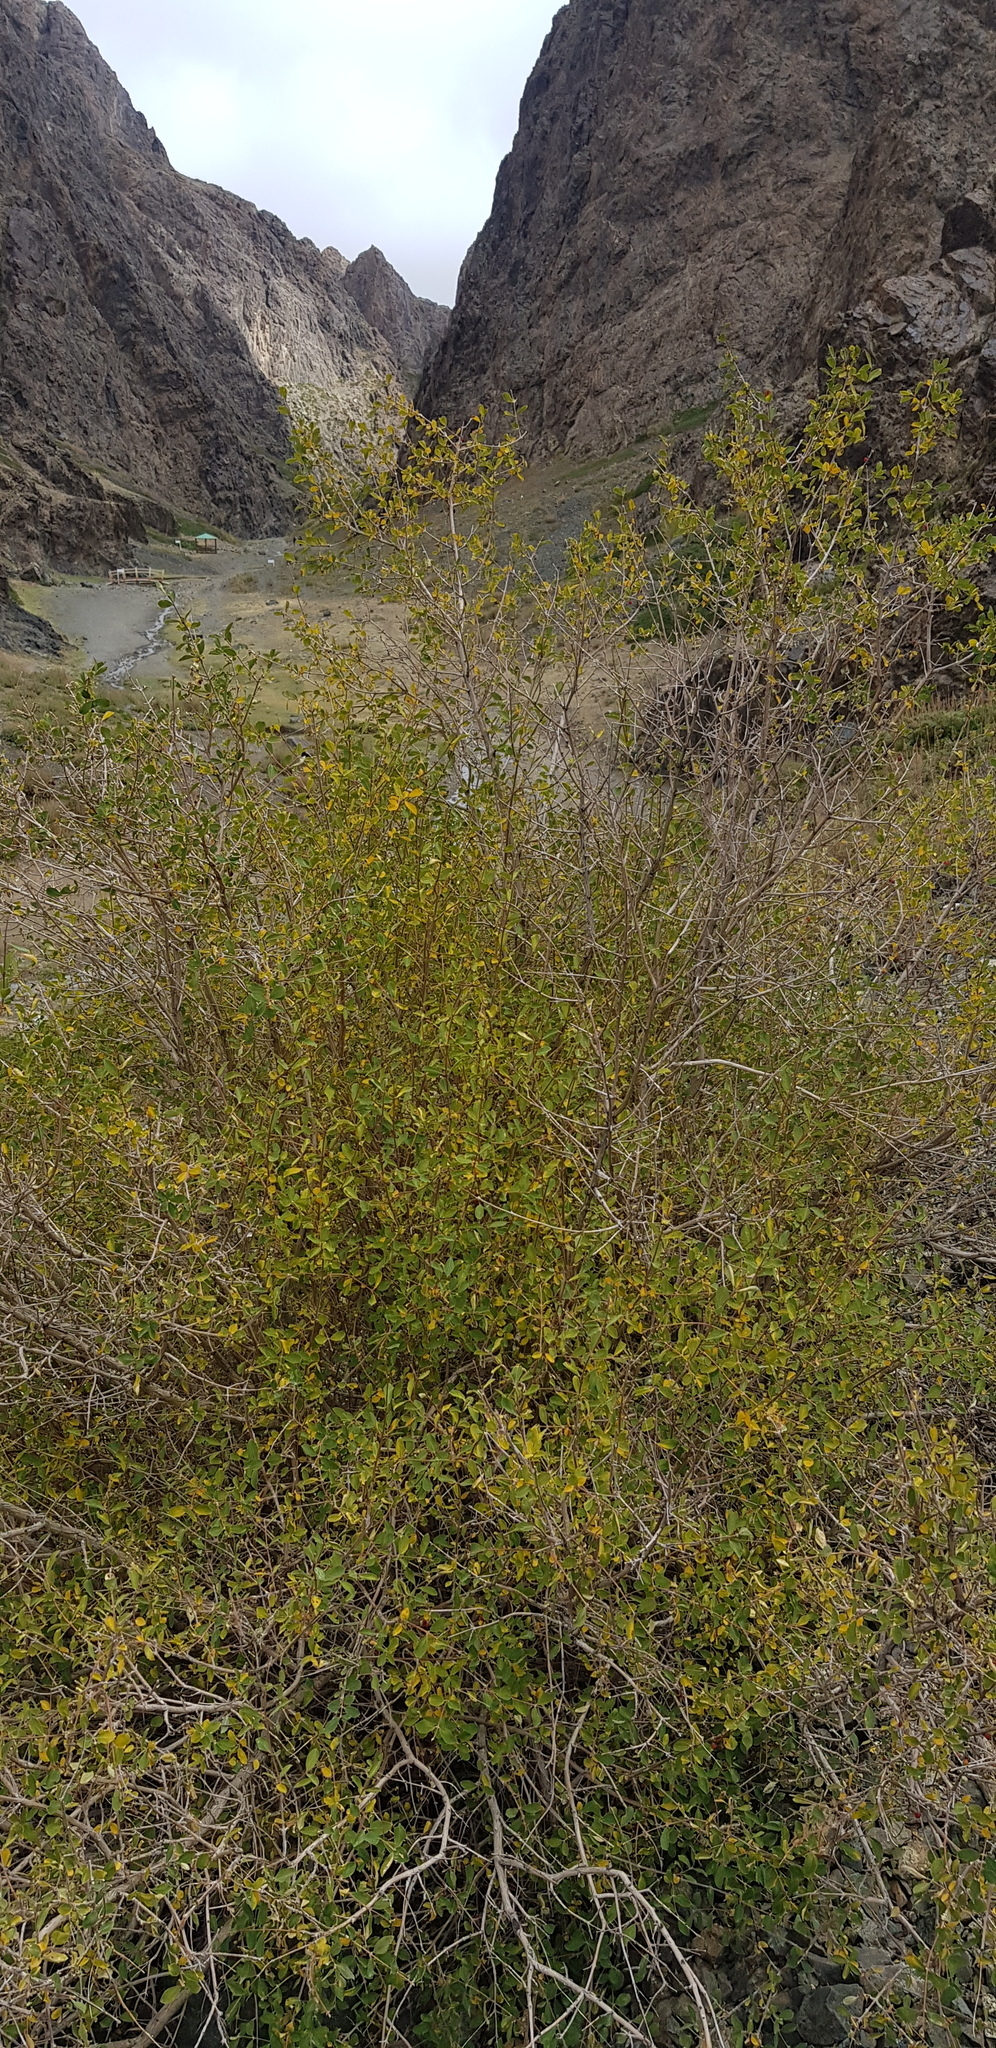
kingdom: Plantae
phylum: Tracheophyta
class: Magnoliopsida
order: Dipsacales
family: Caprifoliaceae
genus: Lonicera
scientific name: Lonicera microphylla
